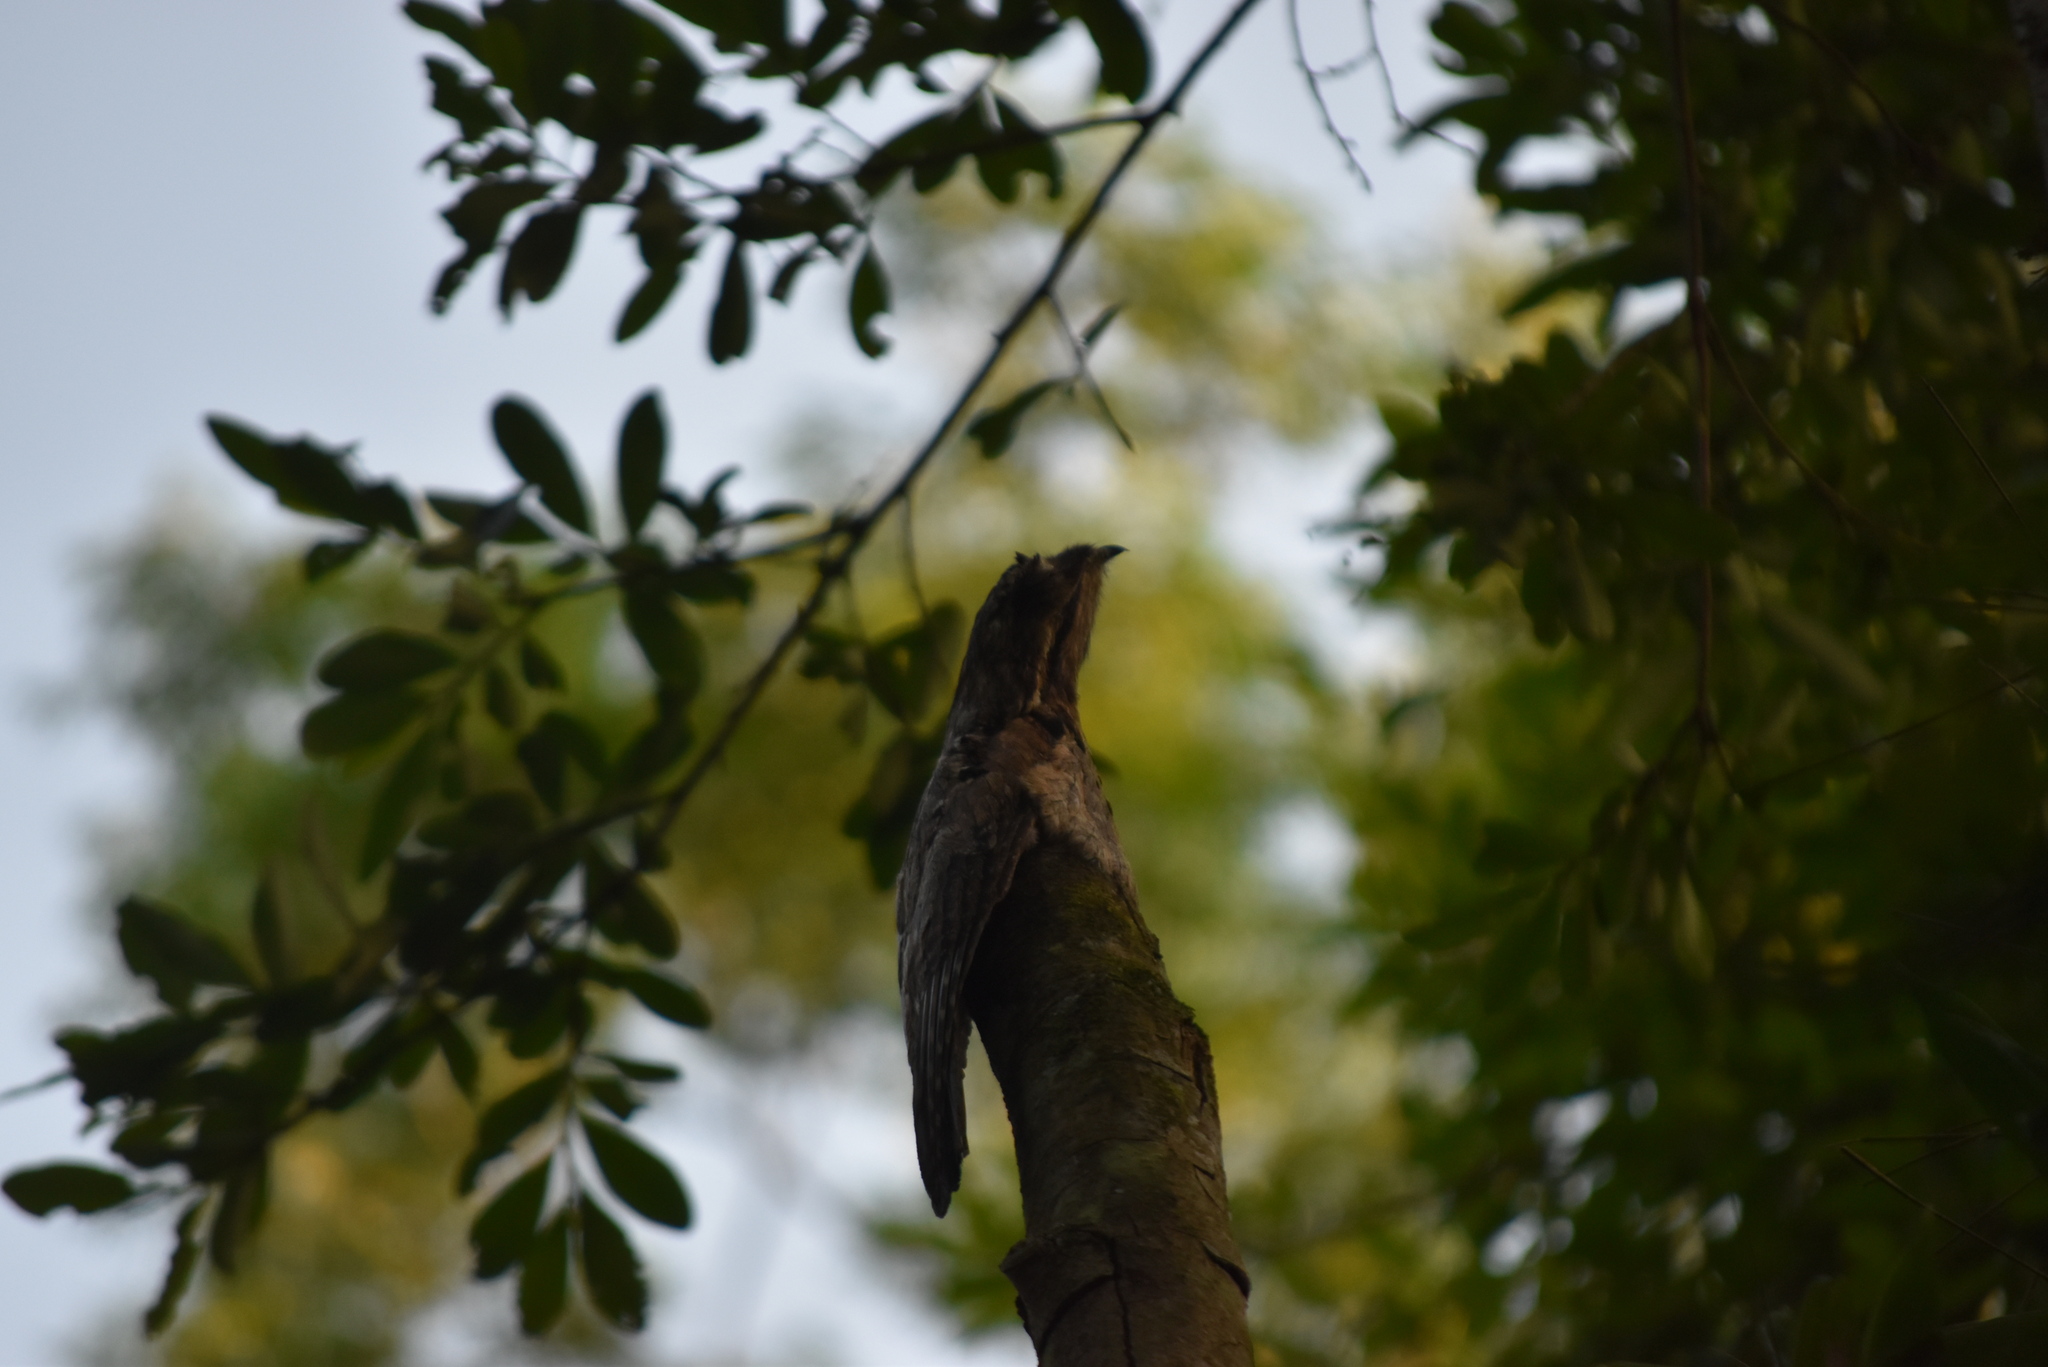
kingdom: Animalia
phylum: Chordata
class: Aves
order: Nyctibiiformes
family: Nyctibiidae
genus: Nyctibius
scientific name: Nyctibius griseus
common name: Common potoo
